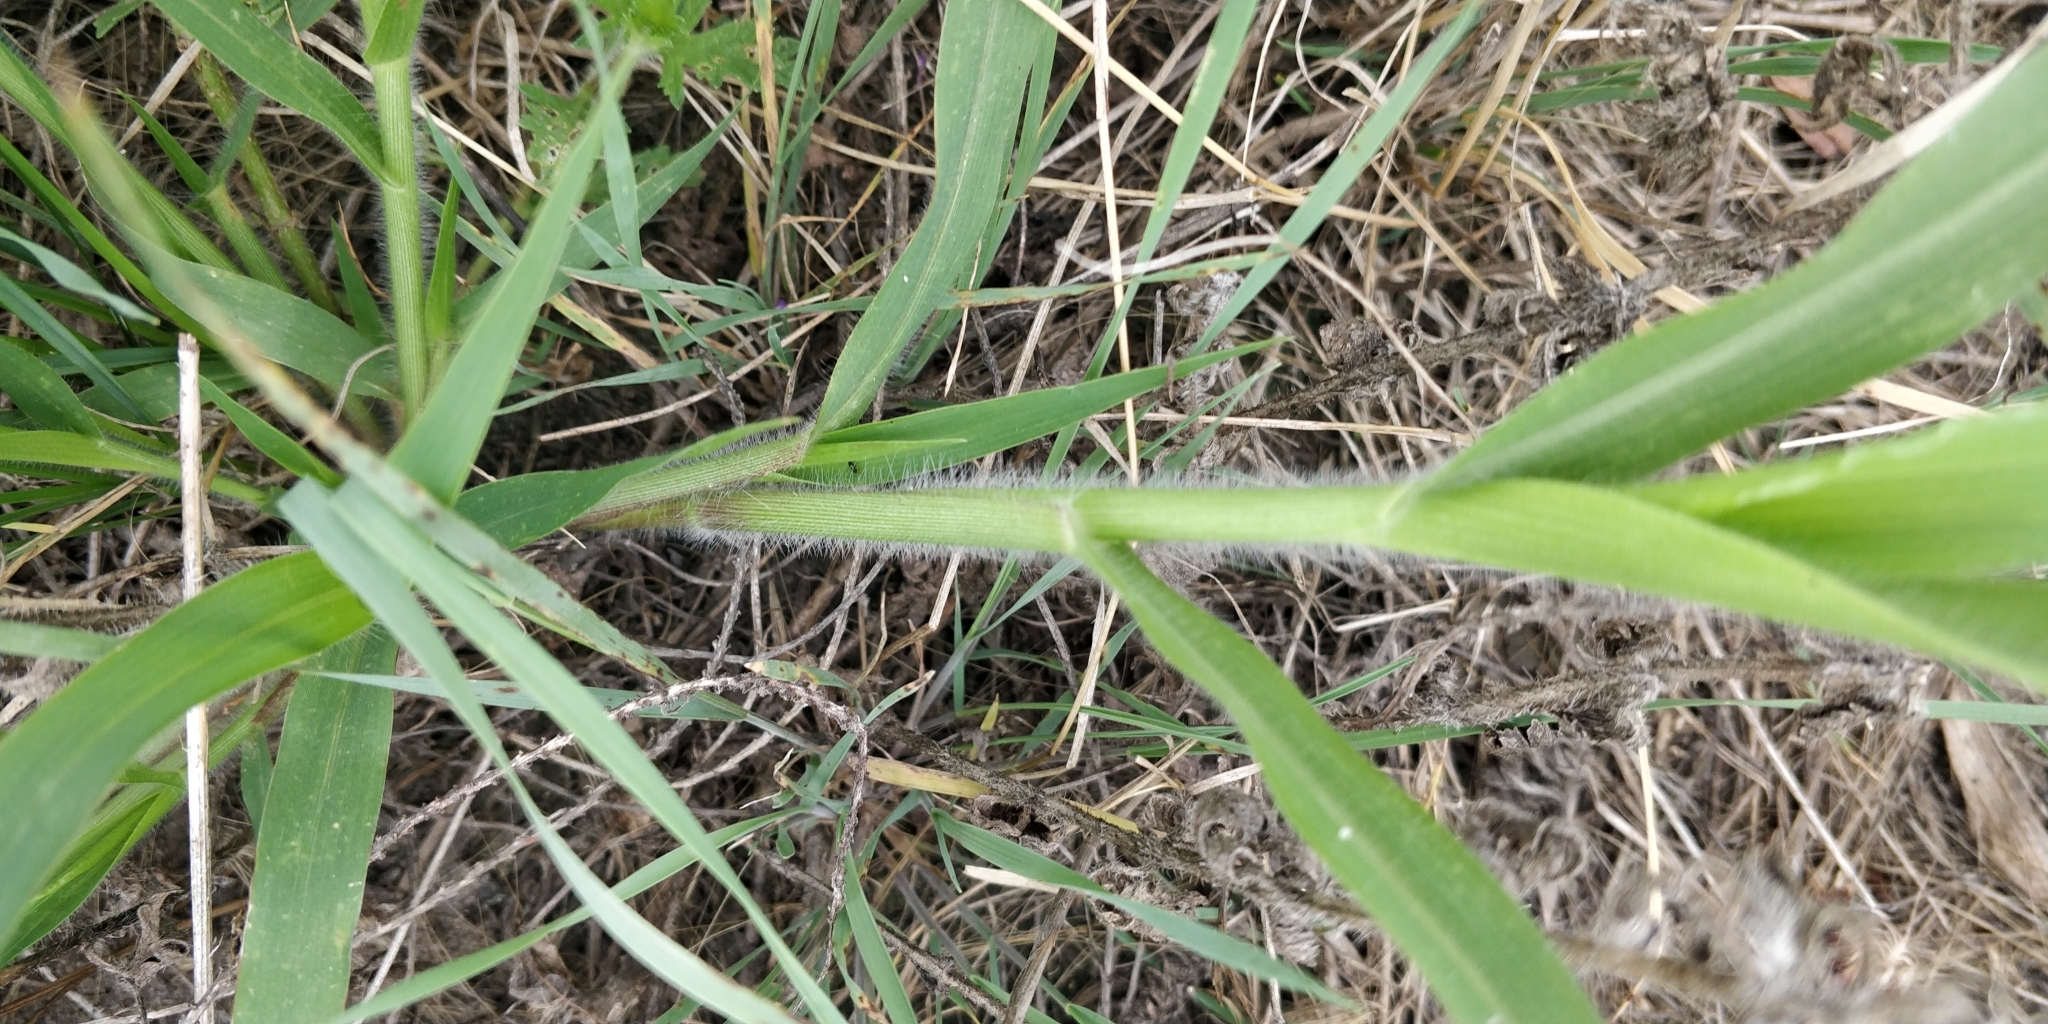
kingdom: Plantae
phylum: Tracheophyta
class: Liliopsida
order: Poales
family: Poaceae
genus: Panicum
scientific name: Panicum capillare
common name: Witch-grass
